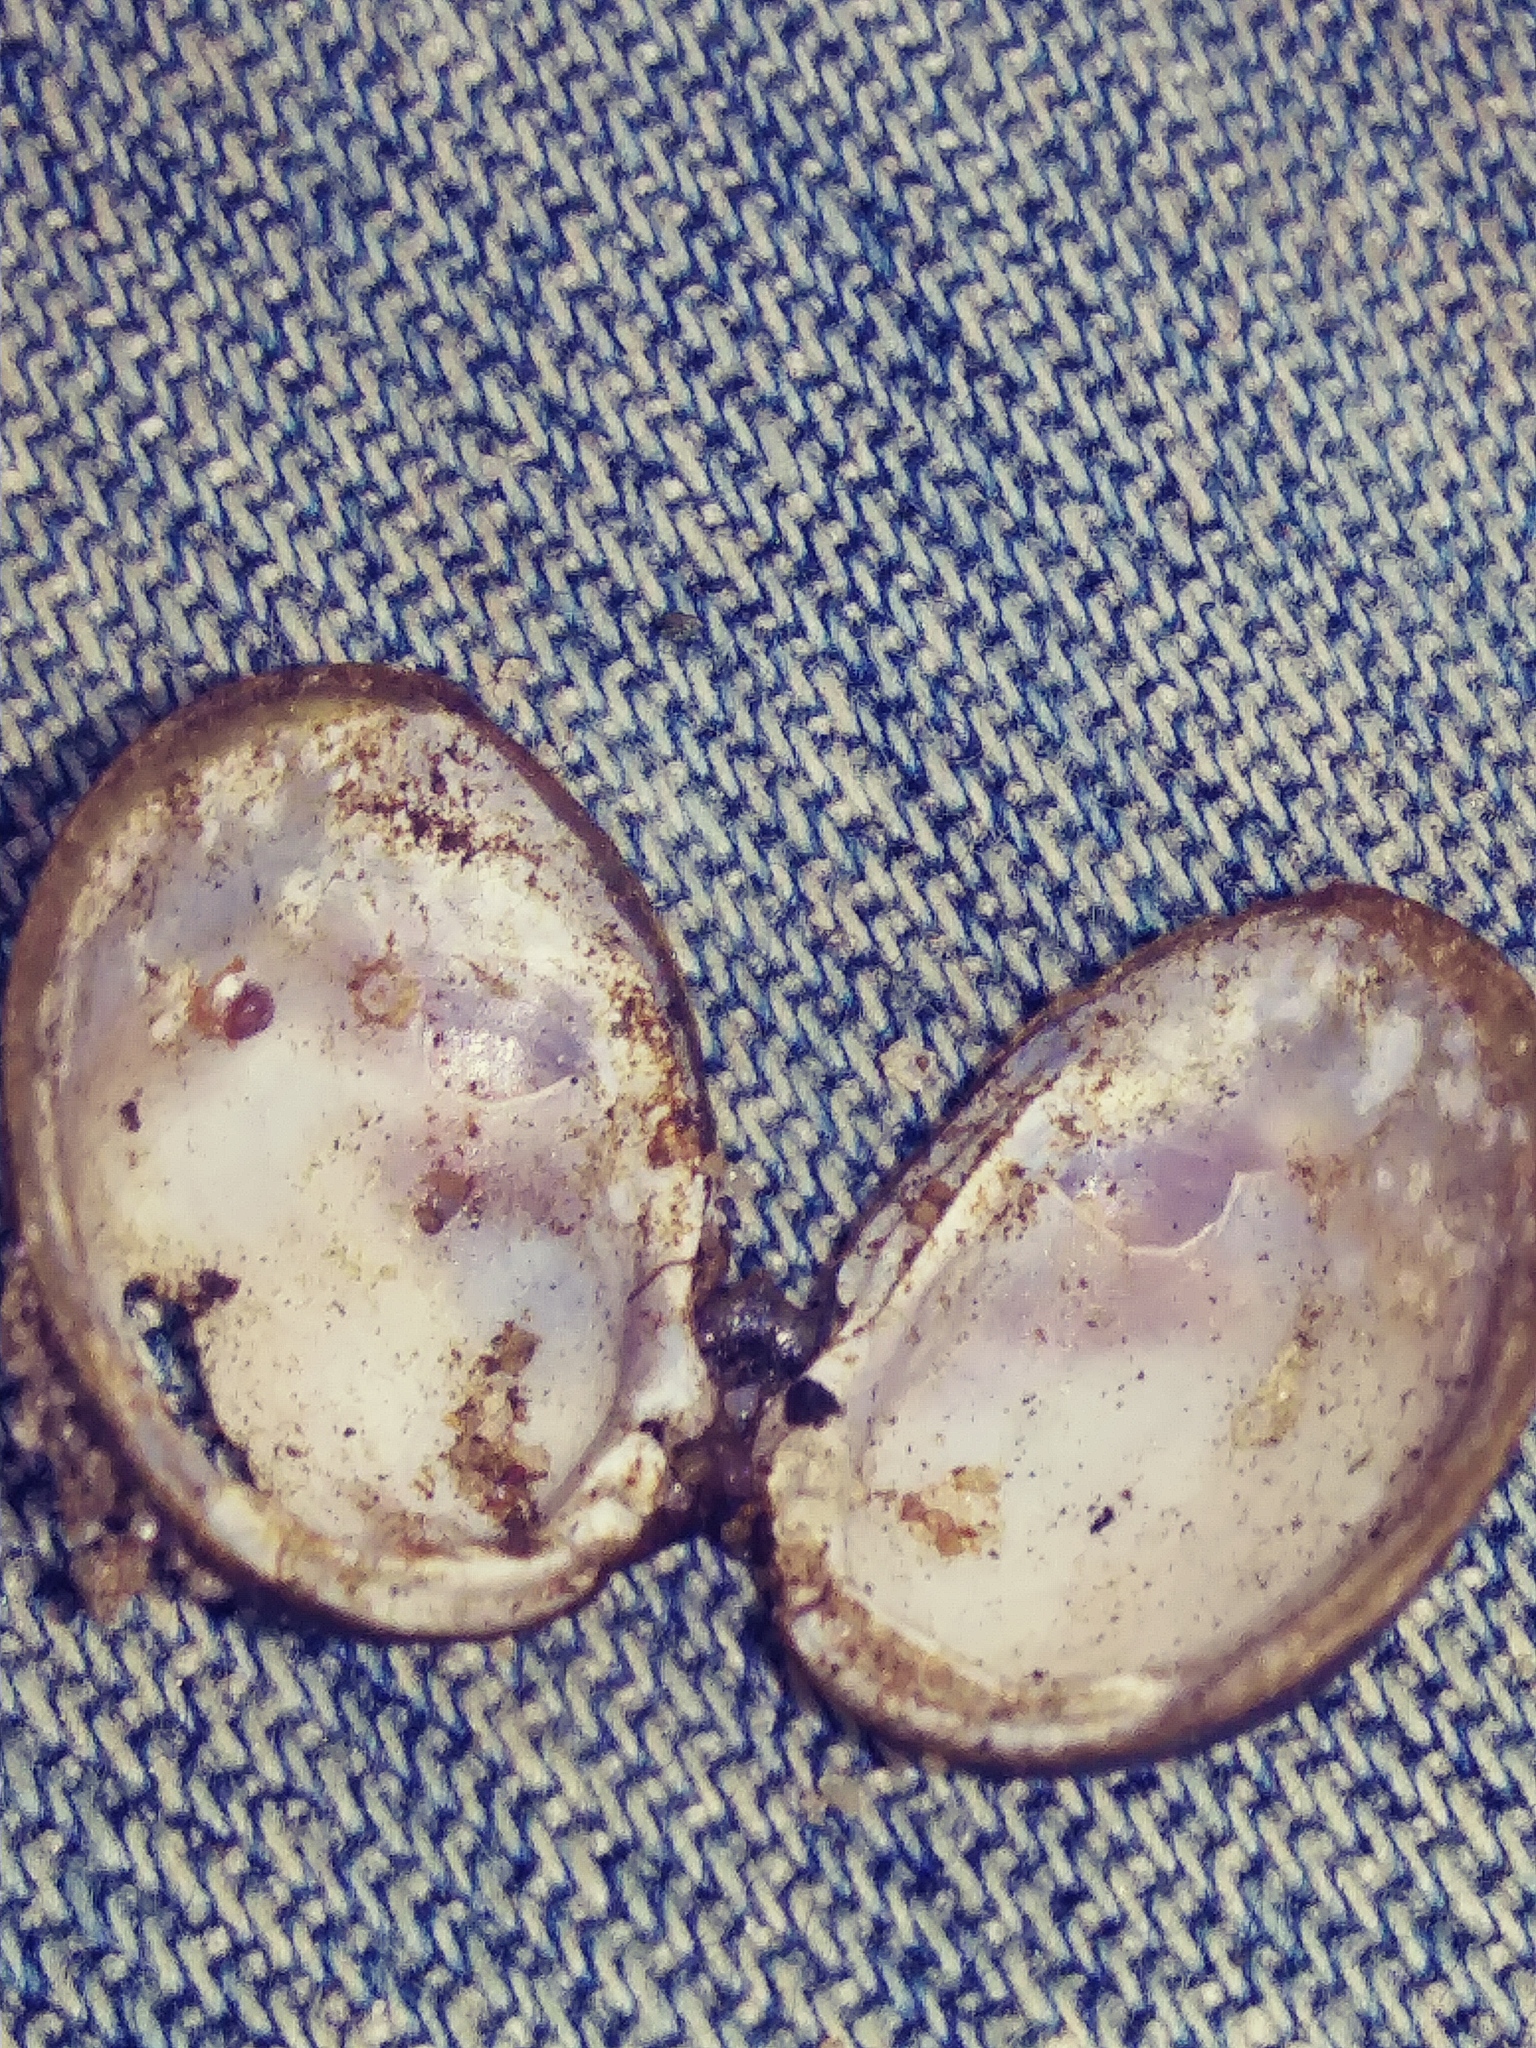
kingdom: Animalia
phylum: Mollusca
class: Bivalvia
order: Venerida
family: Cyrenidae
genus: Corbicula
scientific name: Corbicula fluminea
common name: Asian clam
